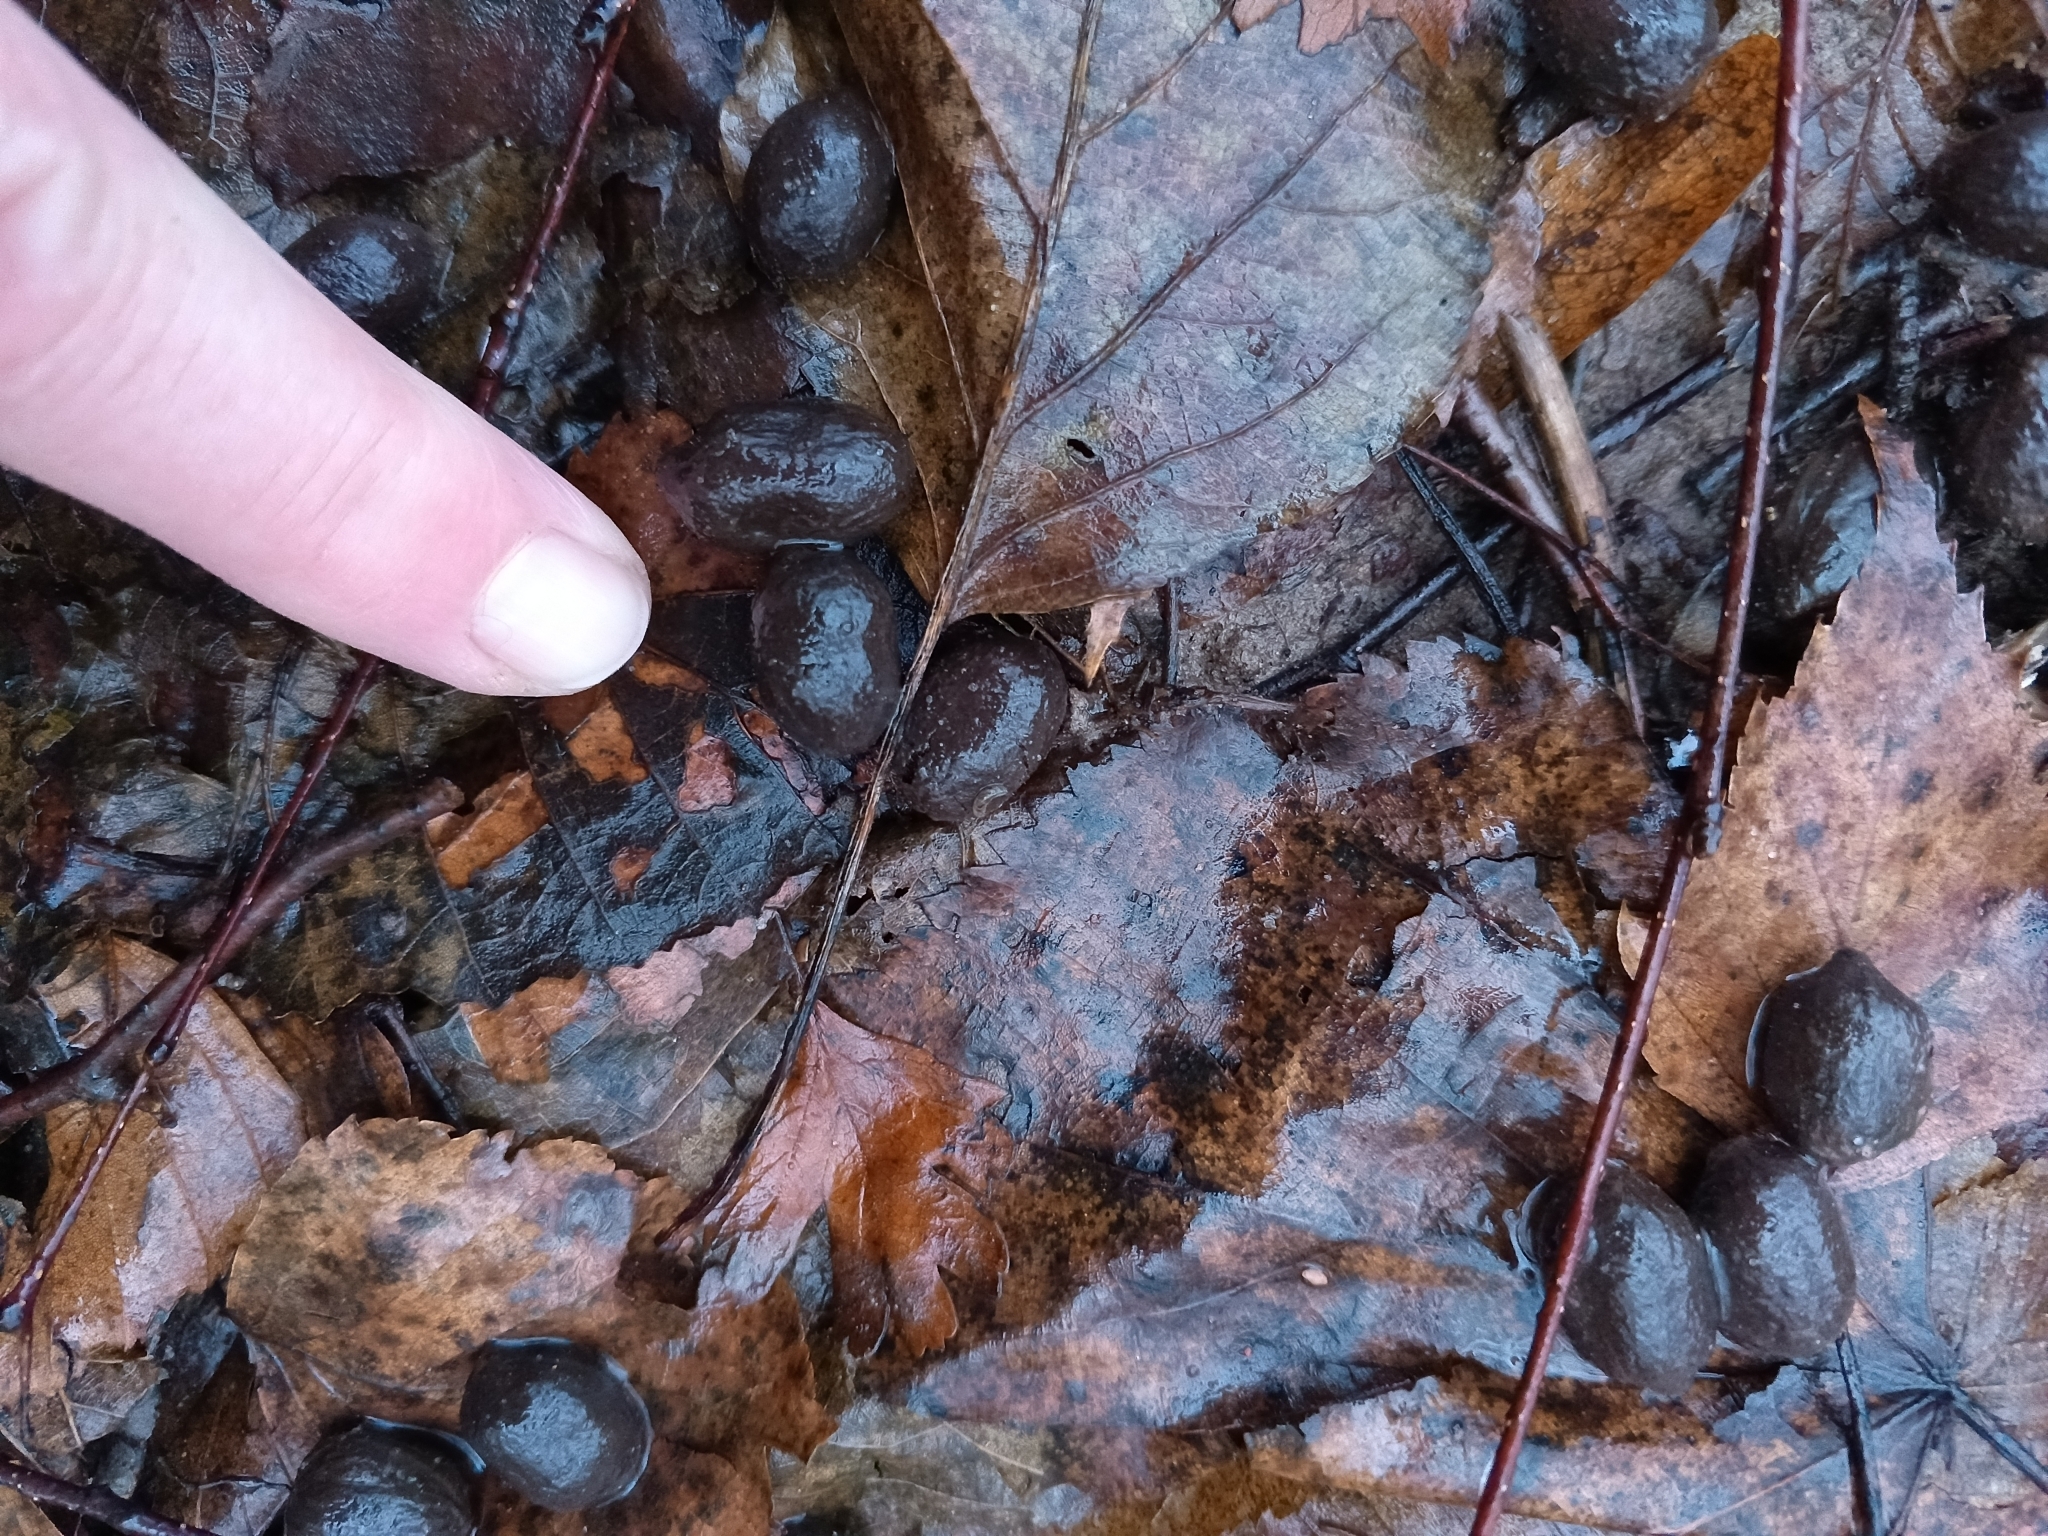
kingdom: Animalia
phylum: Chordata
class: Mammalia
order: Artiodactyla
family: Cervidae
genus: Capreolus
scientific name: Capreolus capreolus
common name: Western roe deer
